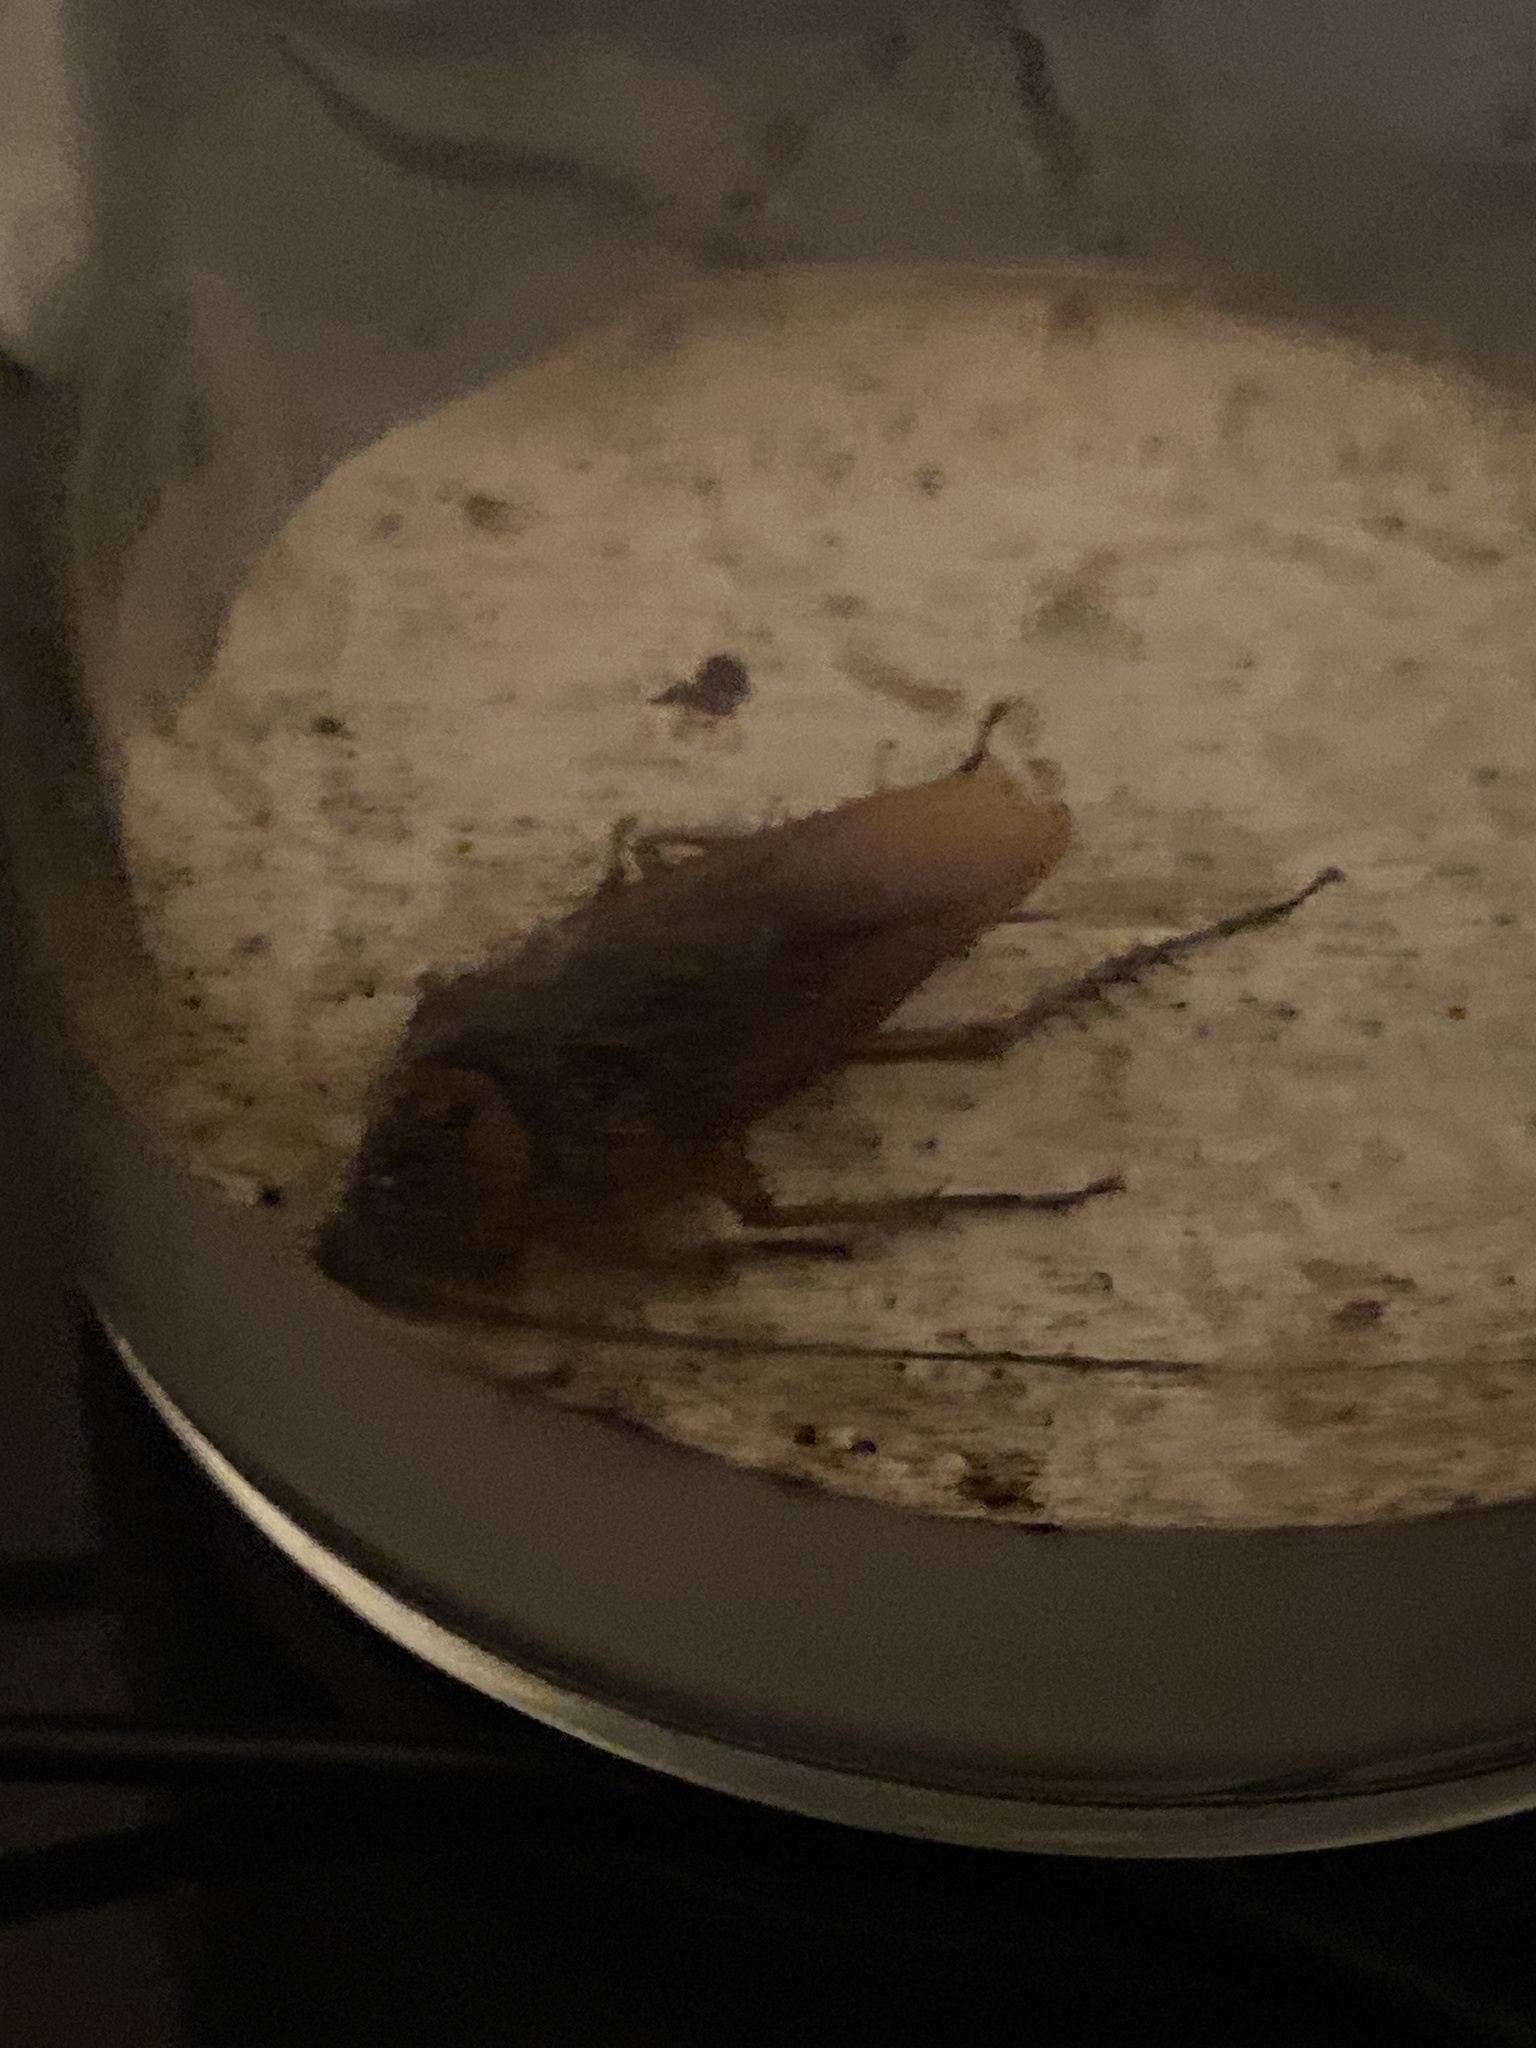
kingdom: Animalia
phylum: Arthropoda
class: Insecta
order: Blattodea
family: Blattidae
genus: Periplaneta
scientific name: Periplaneta americana
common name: American cockroach
